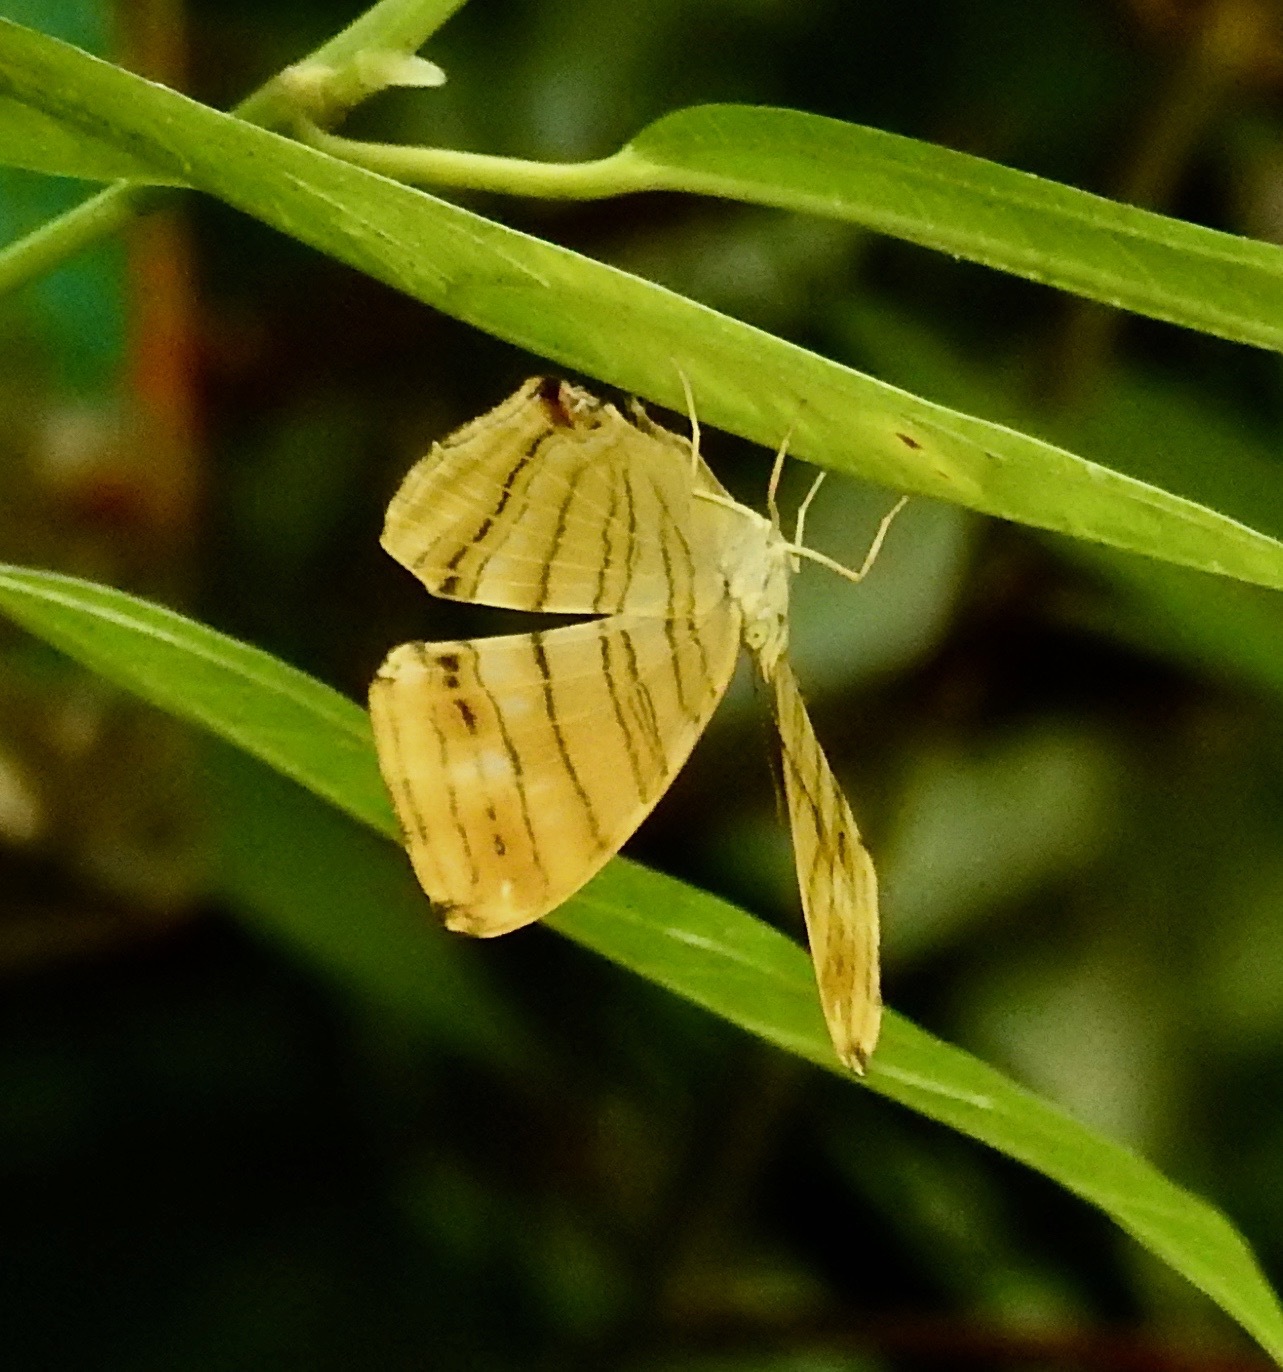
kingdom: Animalia
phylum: Arthropoda
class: Insecta
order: Lepidoptera
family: Nymphalidae
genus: Chersonesia
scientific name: Chersonesia risa
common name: Common maplet
